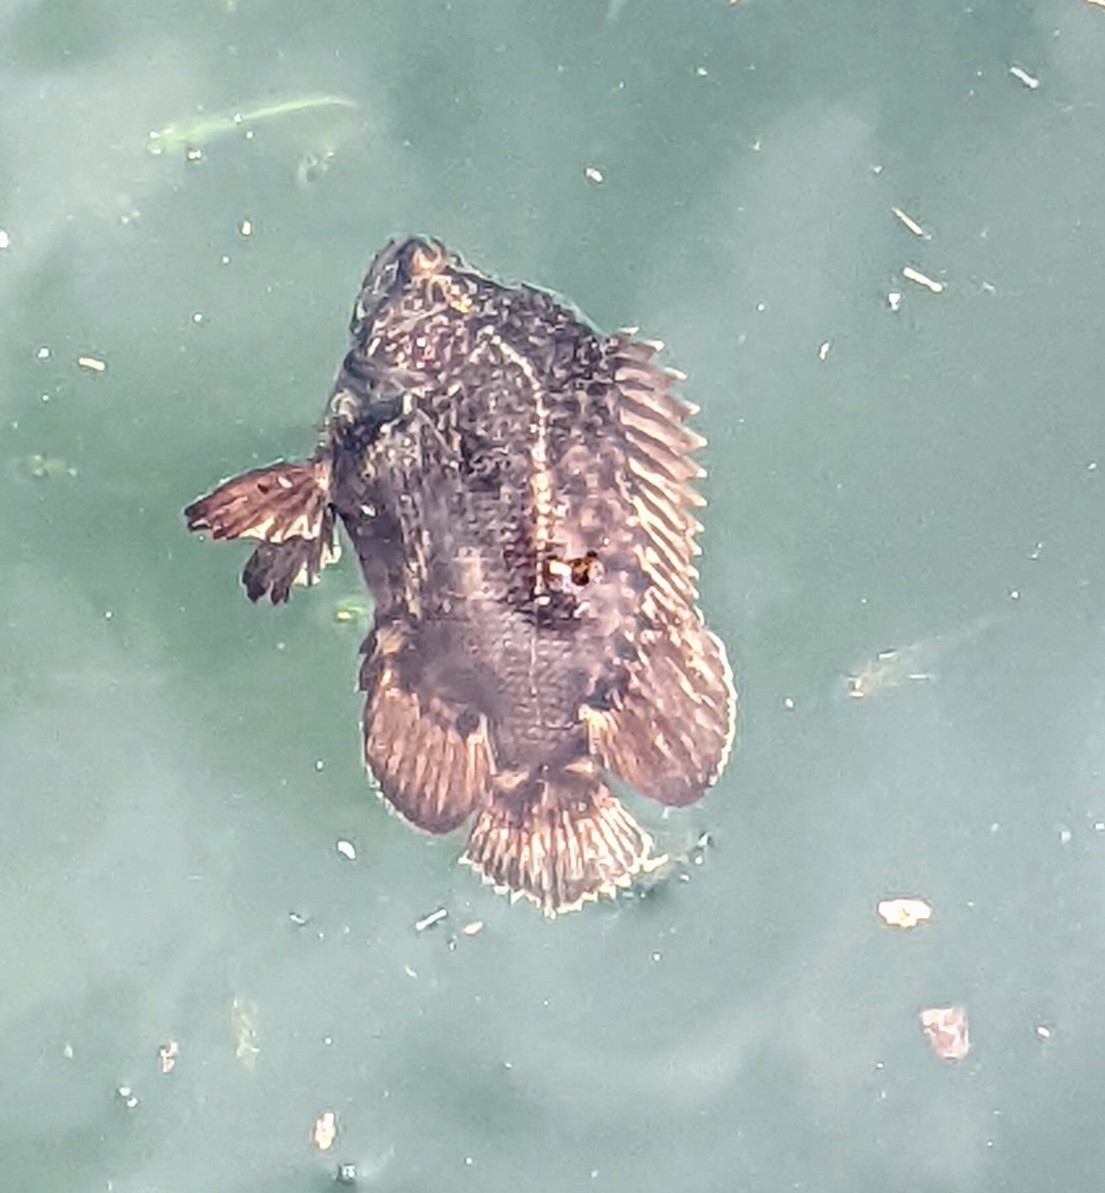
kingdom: Animalia
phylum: Chordata
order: Perciformes
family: Lobotidae
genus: Lobotes
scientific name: Lobotes surinamensis
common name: Atlantic tripletail
